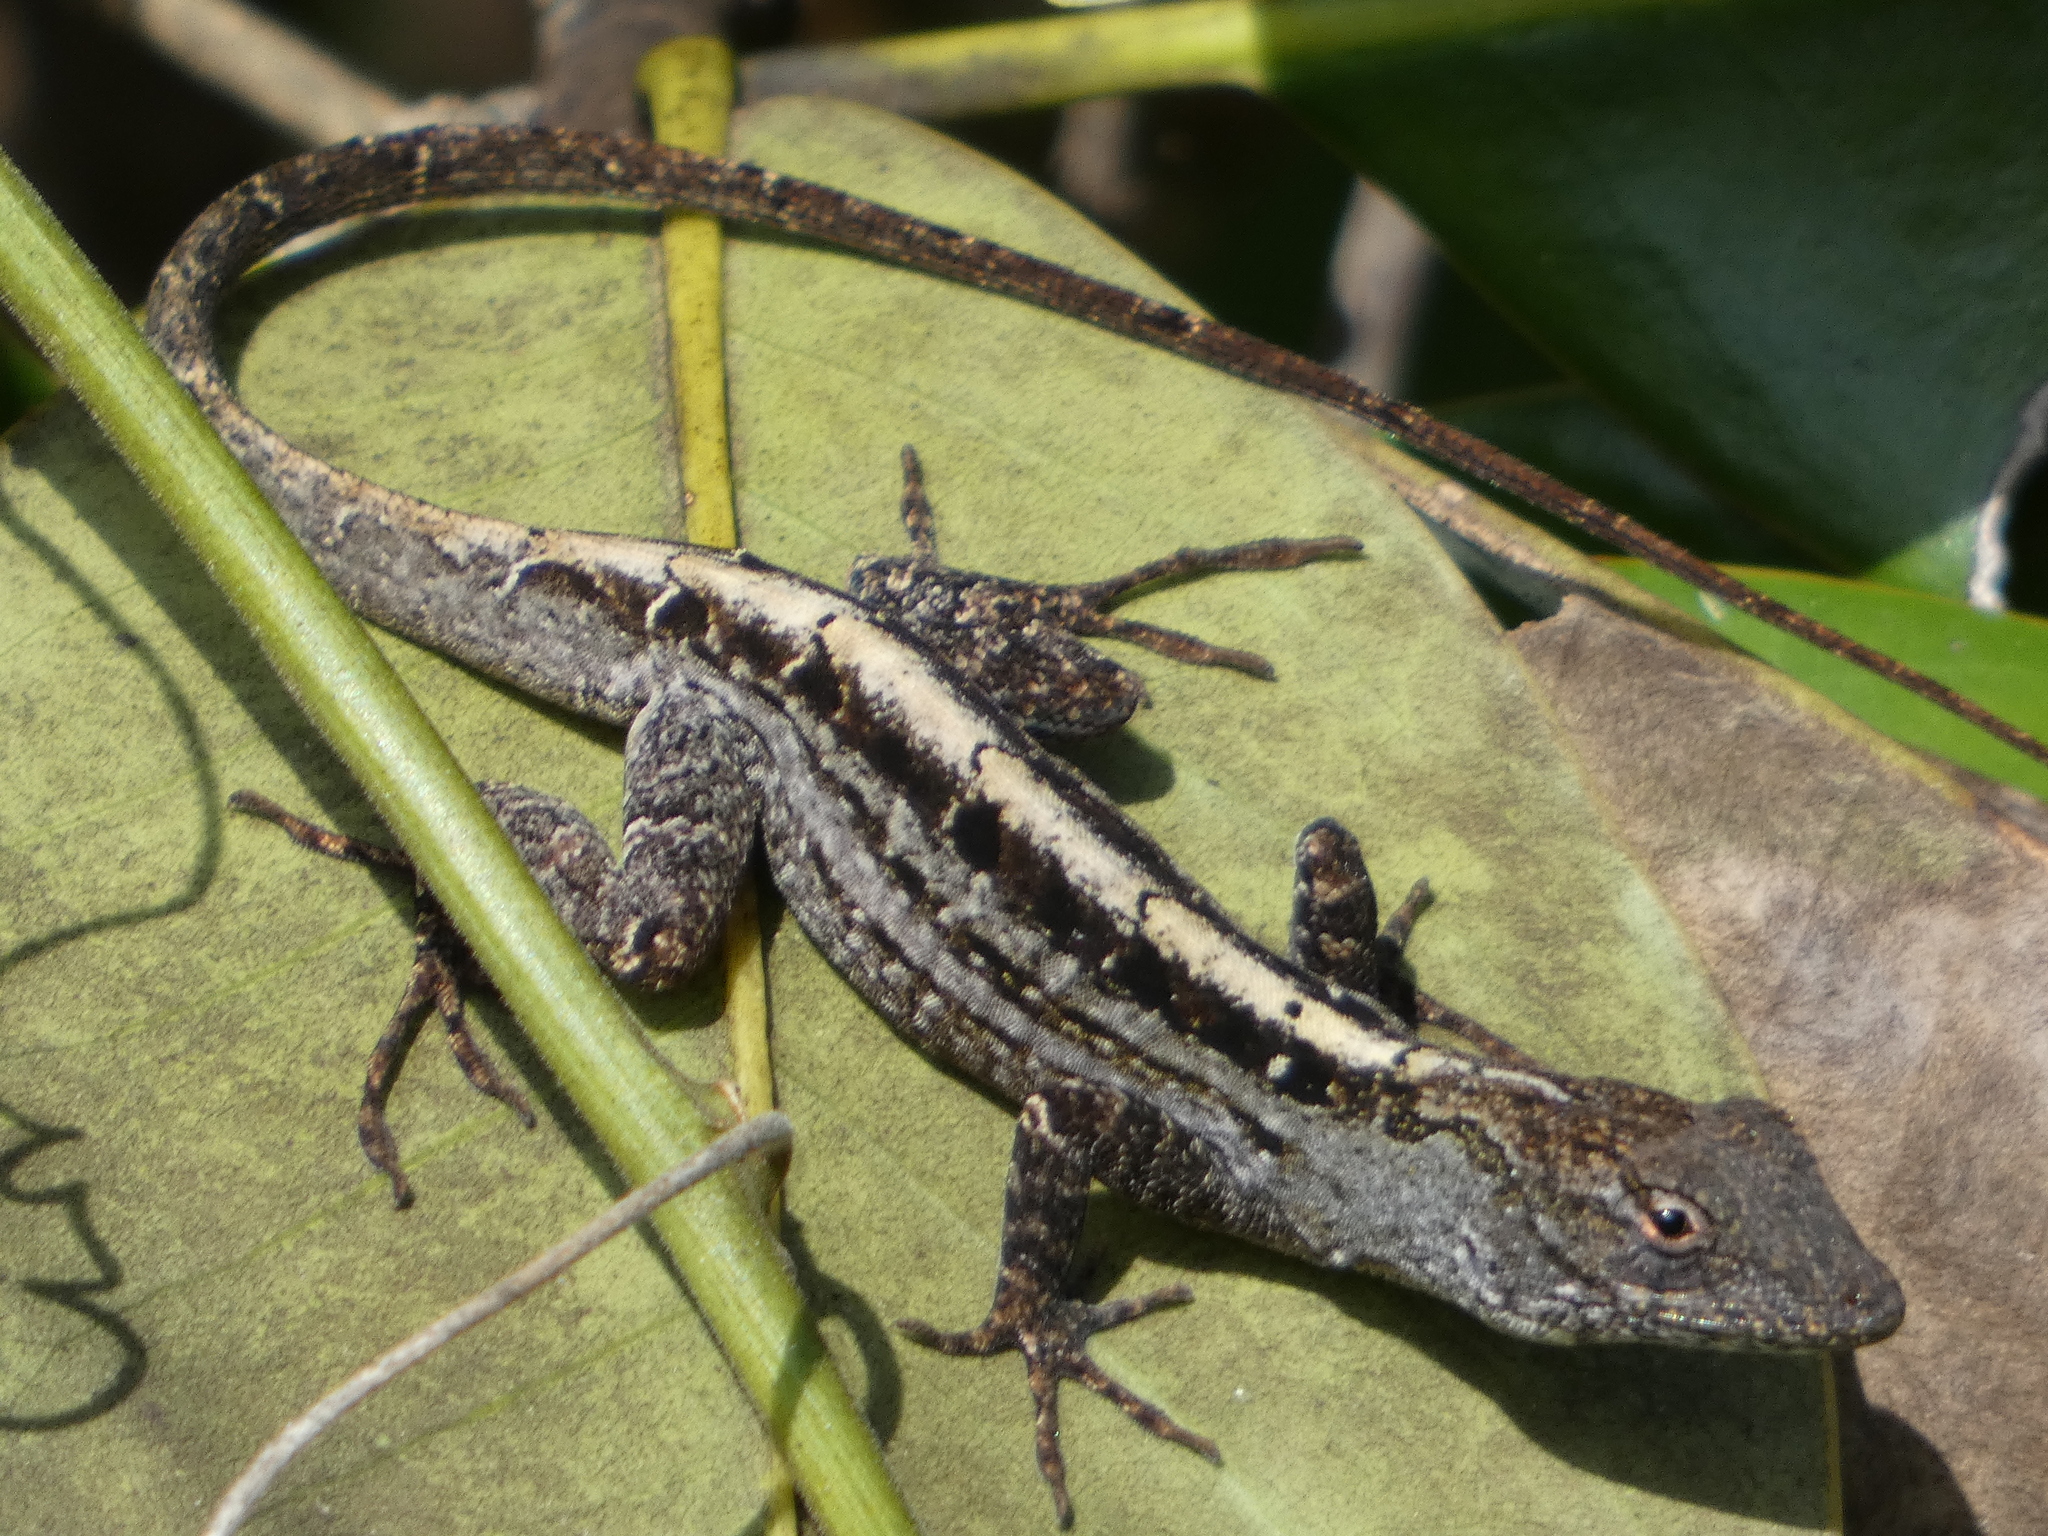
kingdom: Animalia
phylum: Chordata
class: Squamata
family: Dactyloidae
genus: Anolis
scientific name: Anolis sagrei
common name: Brown anole
